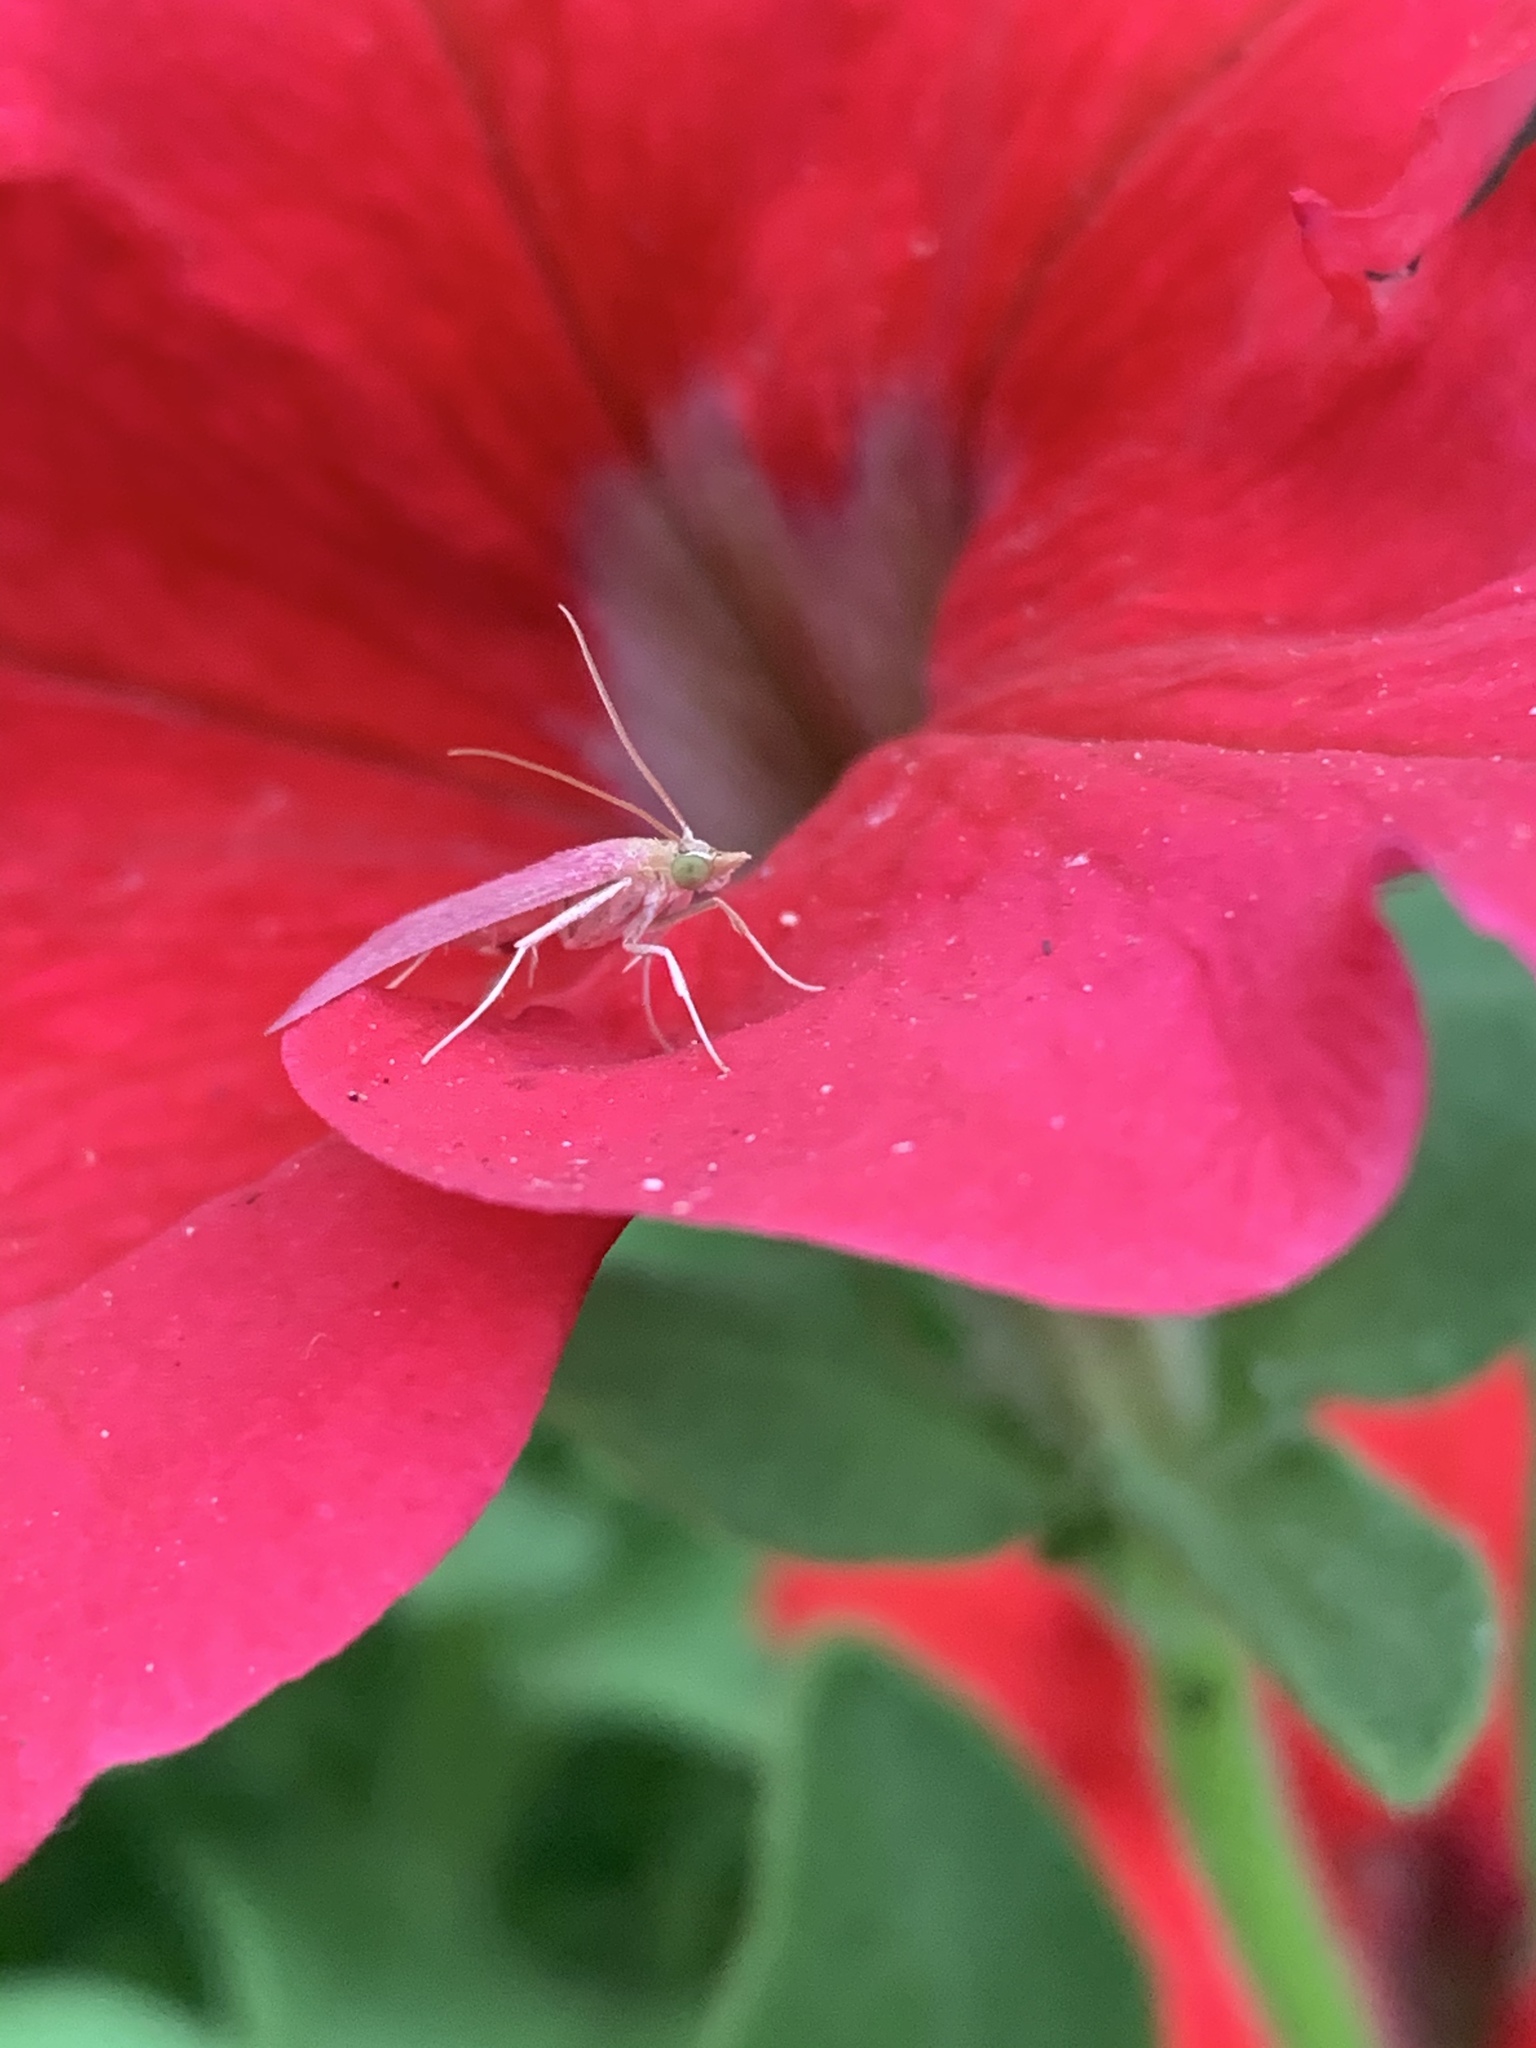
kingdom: Animalia
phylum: Arthropoda
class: Insecta
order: Lepidoptera
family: Crambidae
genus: Pyrausta
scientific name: Pyrausta inornatalis
